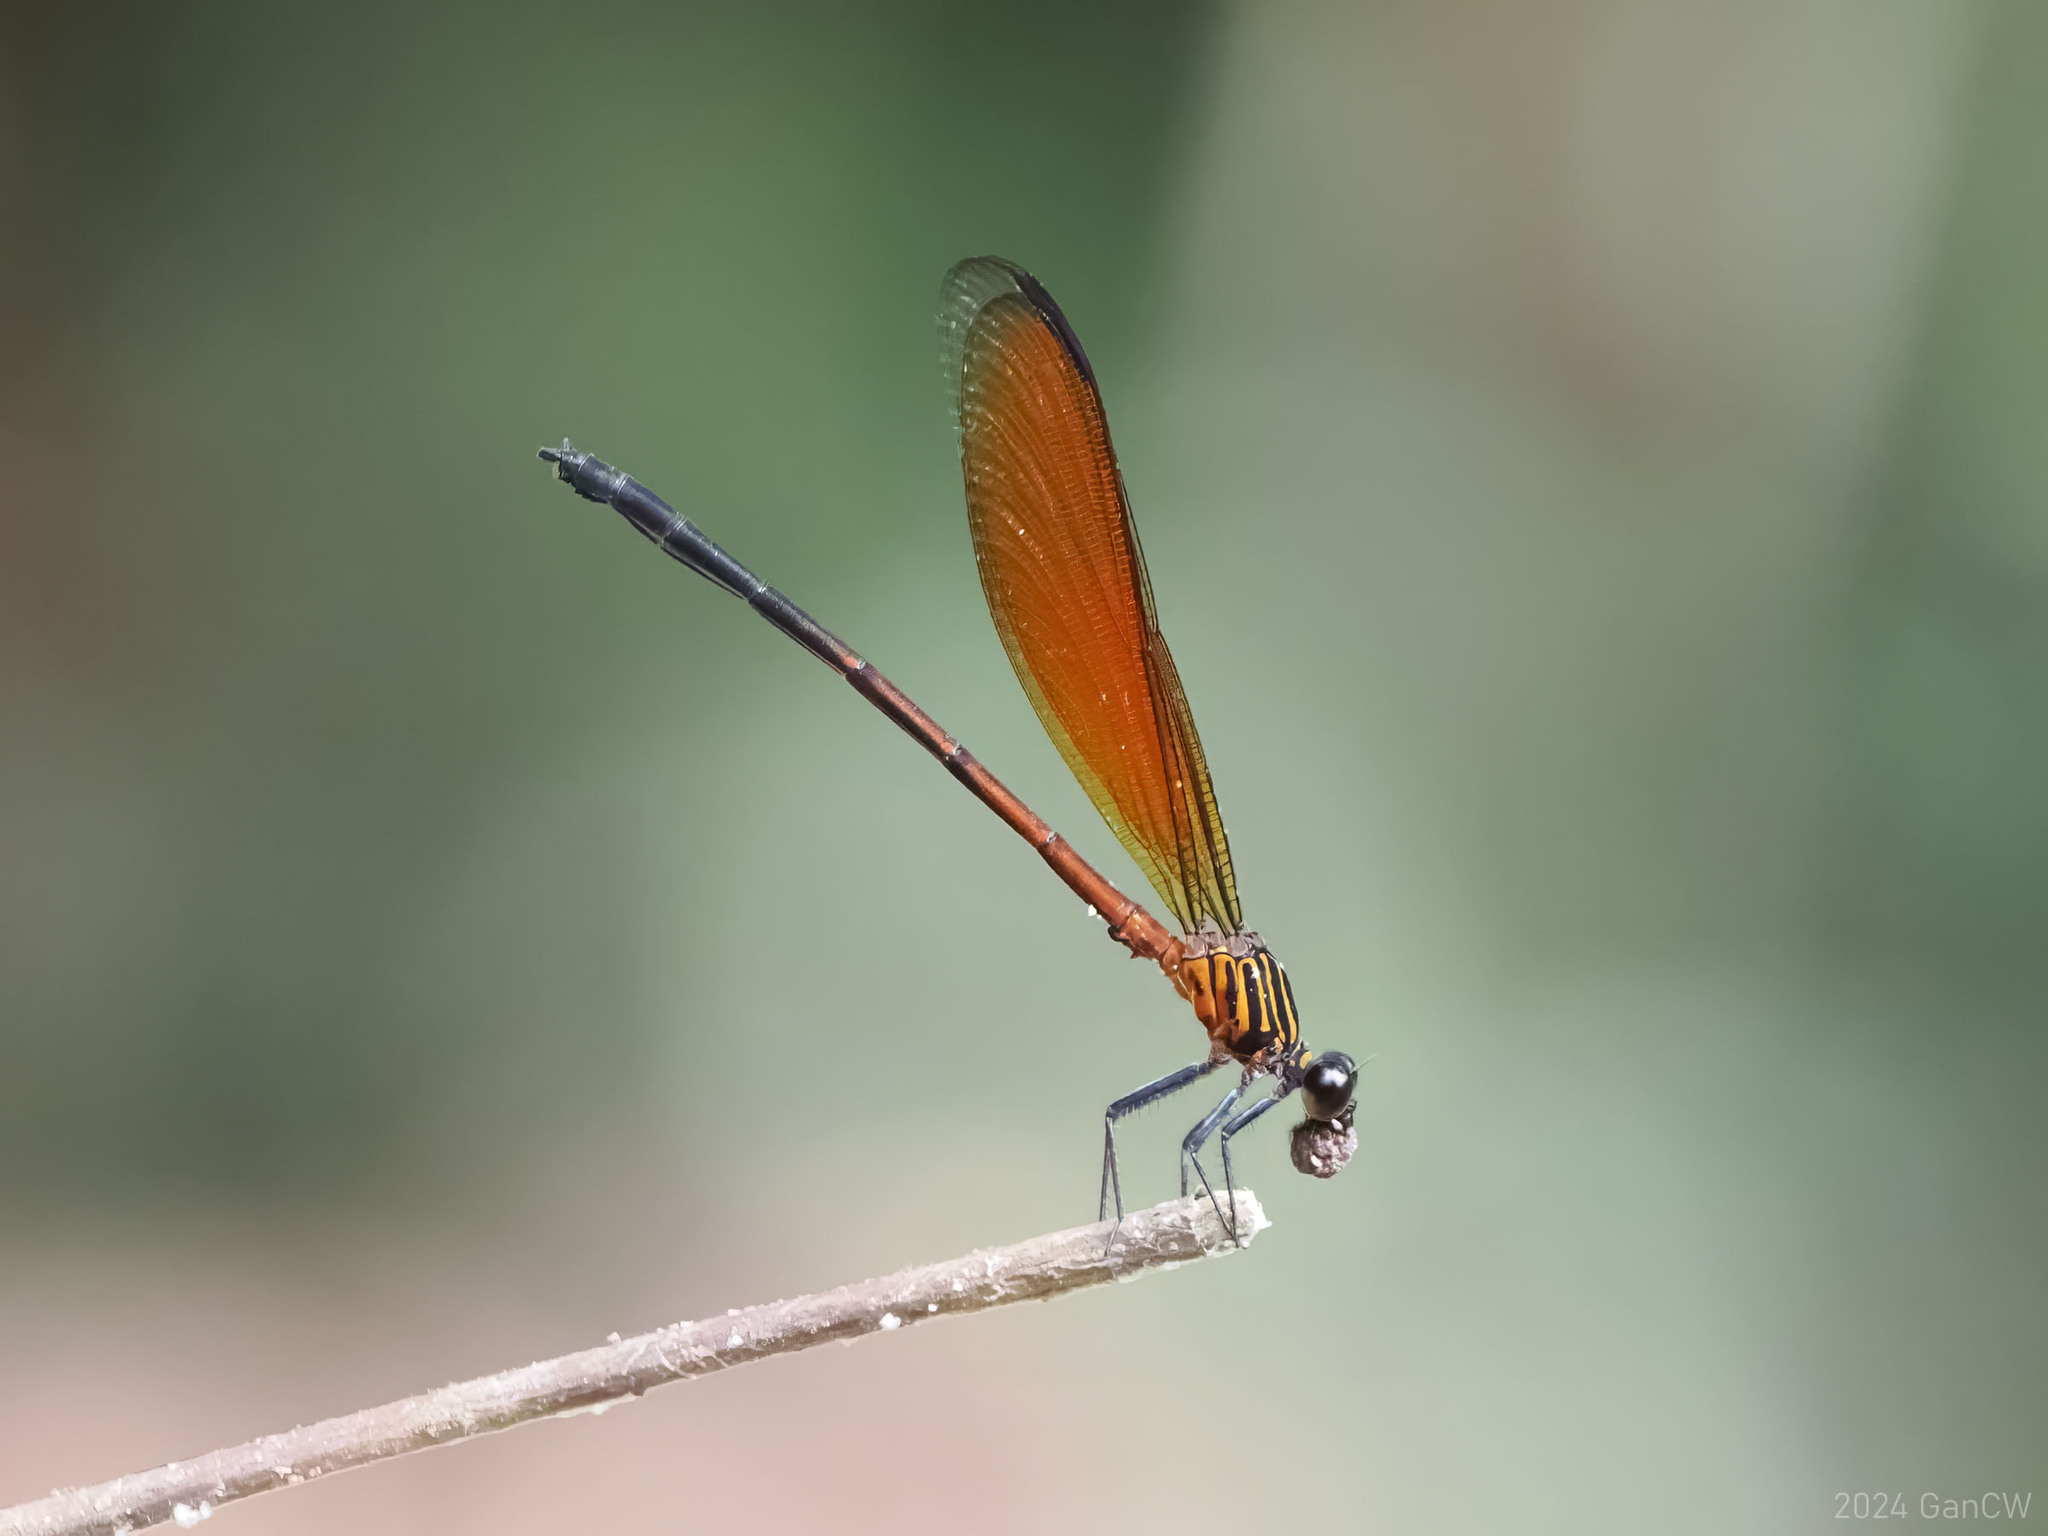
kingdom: Animalia
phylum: Arthropoda
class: Insecta
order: Odonata
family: Euphaeidae
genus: Euphaea
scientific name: Euphaea ochracea
